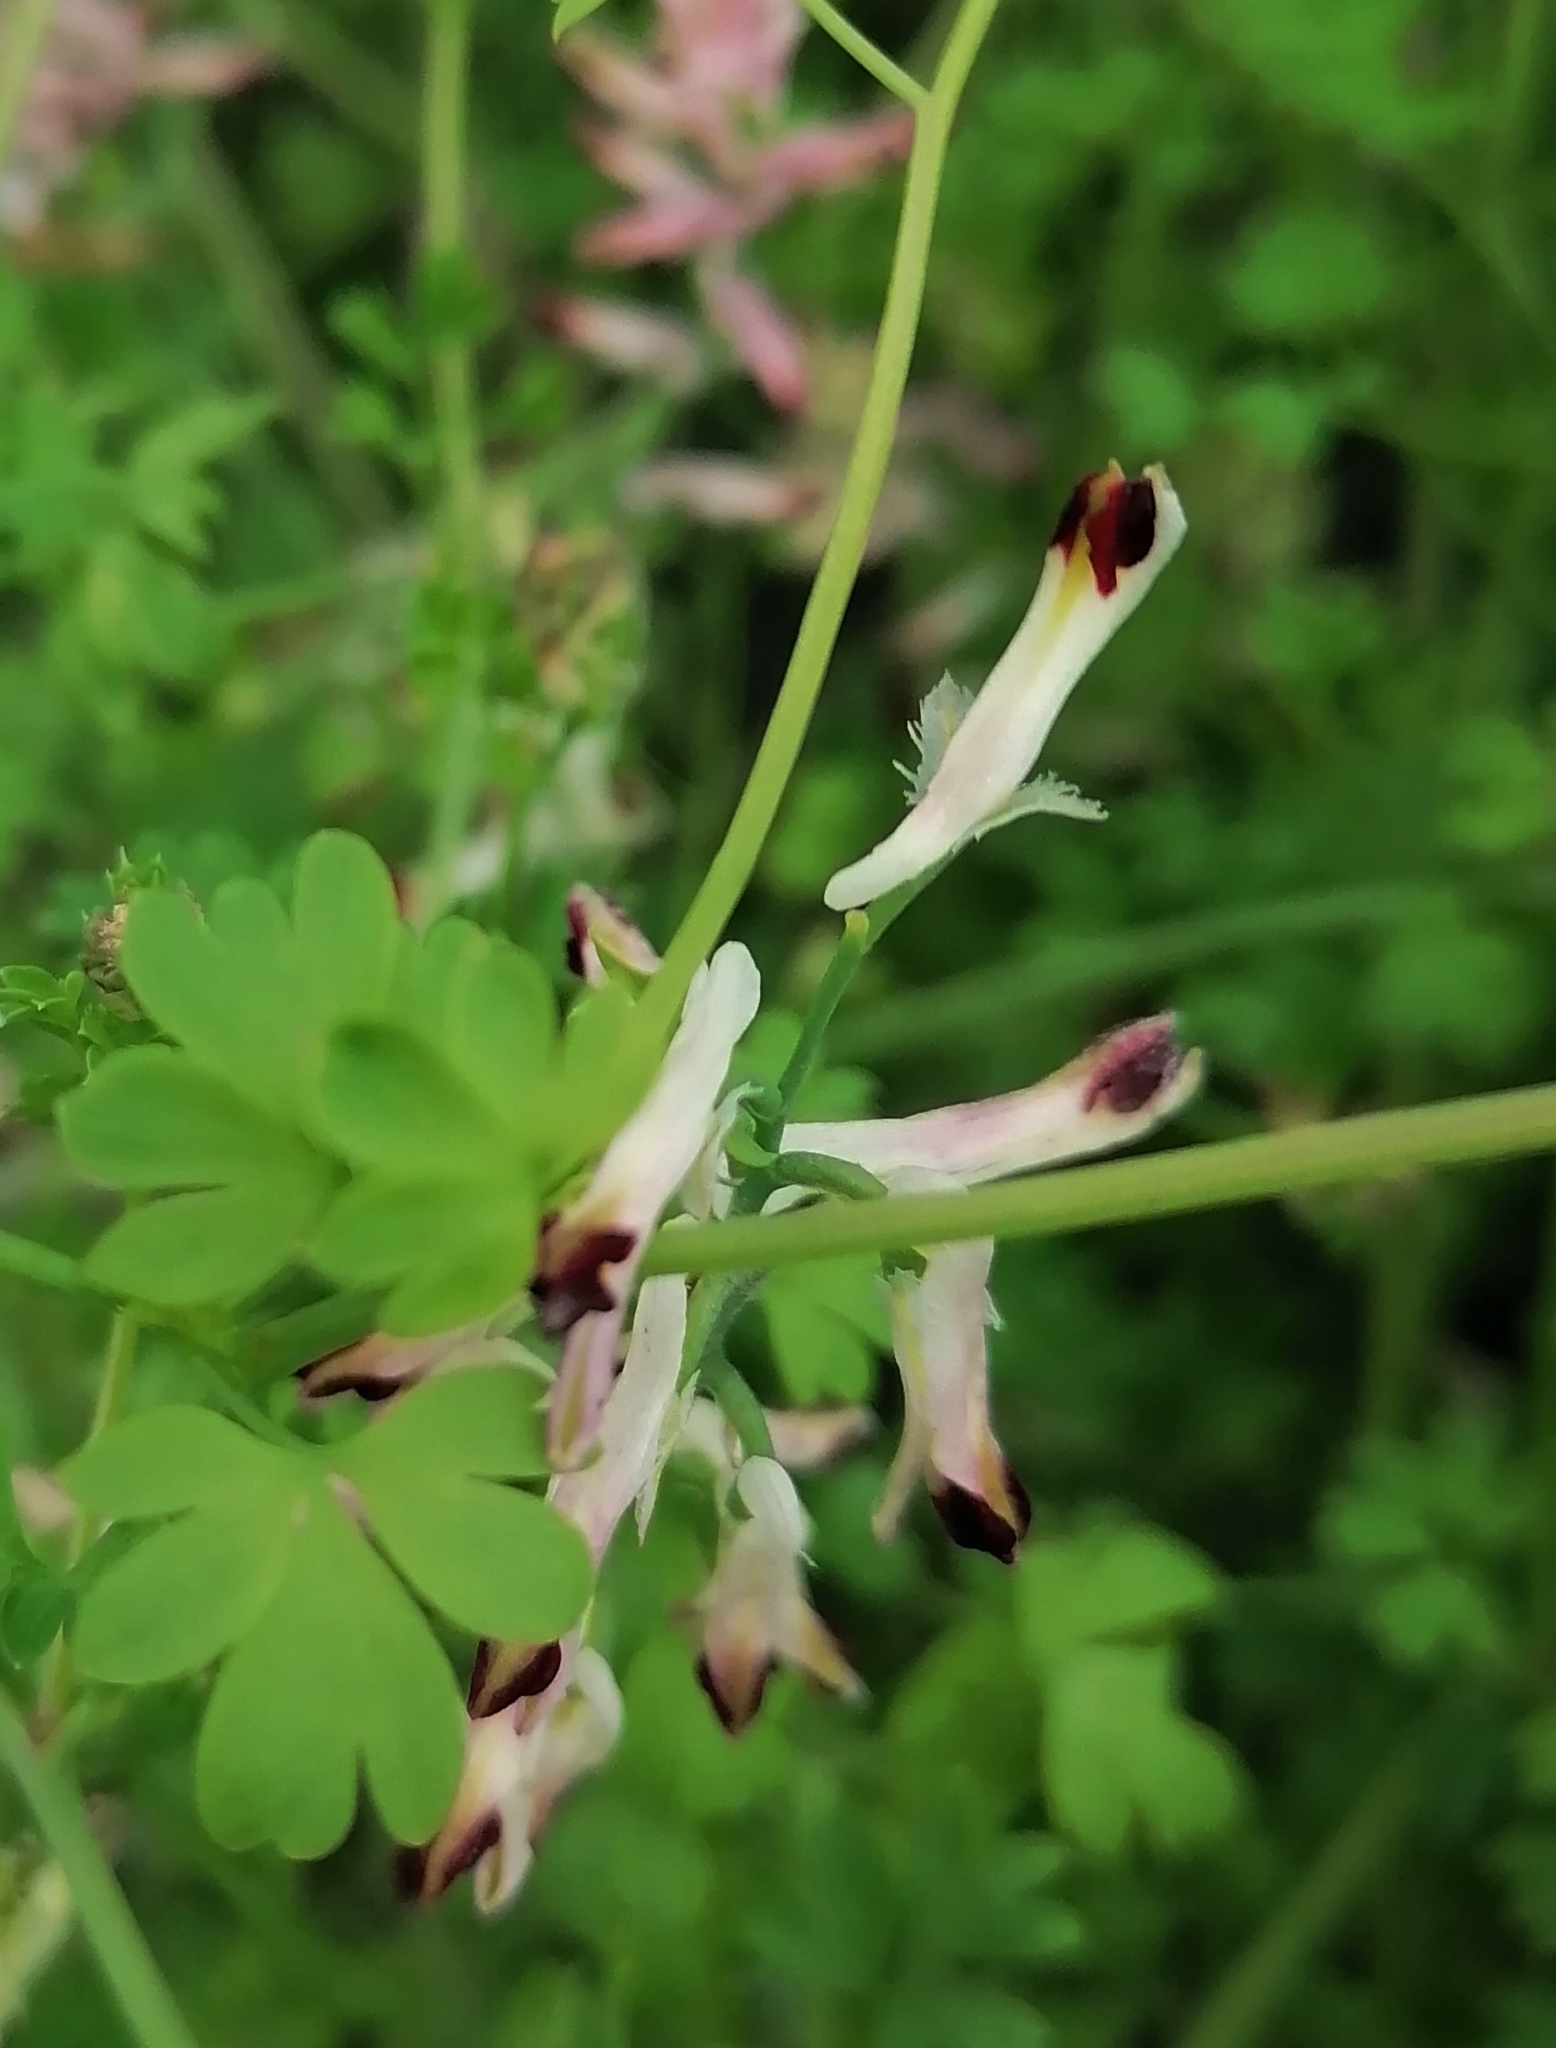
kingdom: Plantae
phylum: Tracheophyta
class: Magnoliopsida
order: Ranunculales
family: Papaveraceae
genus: Fumaria
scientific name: Fumaria flabellata
